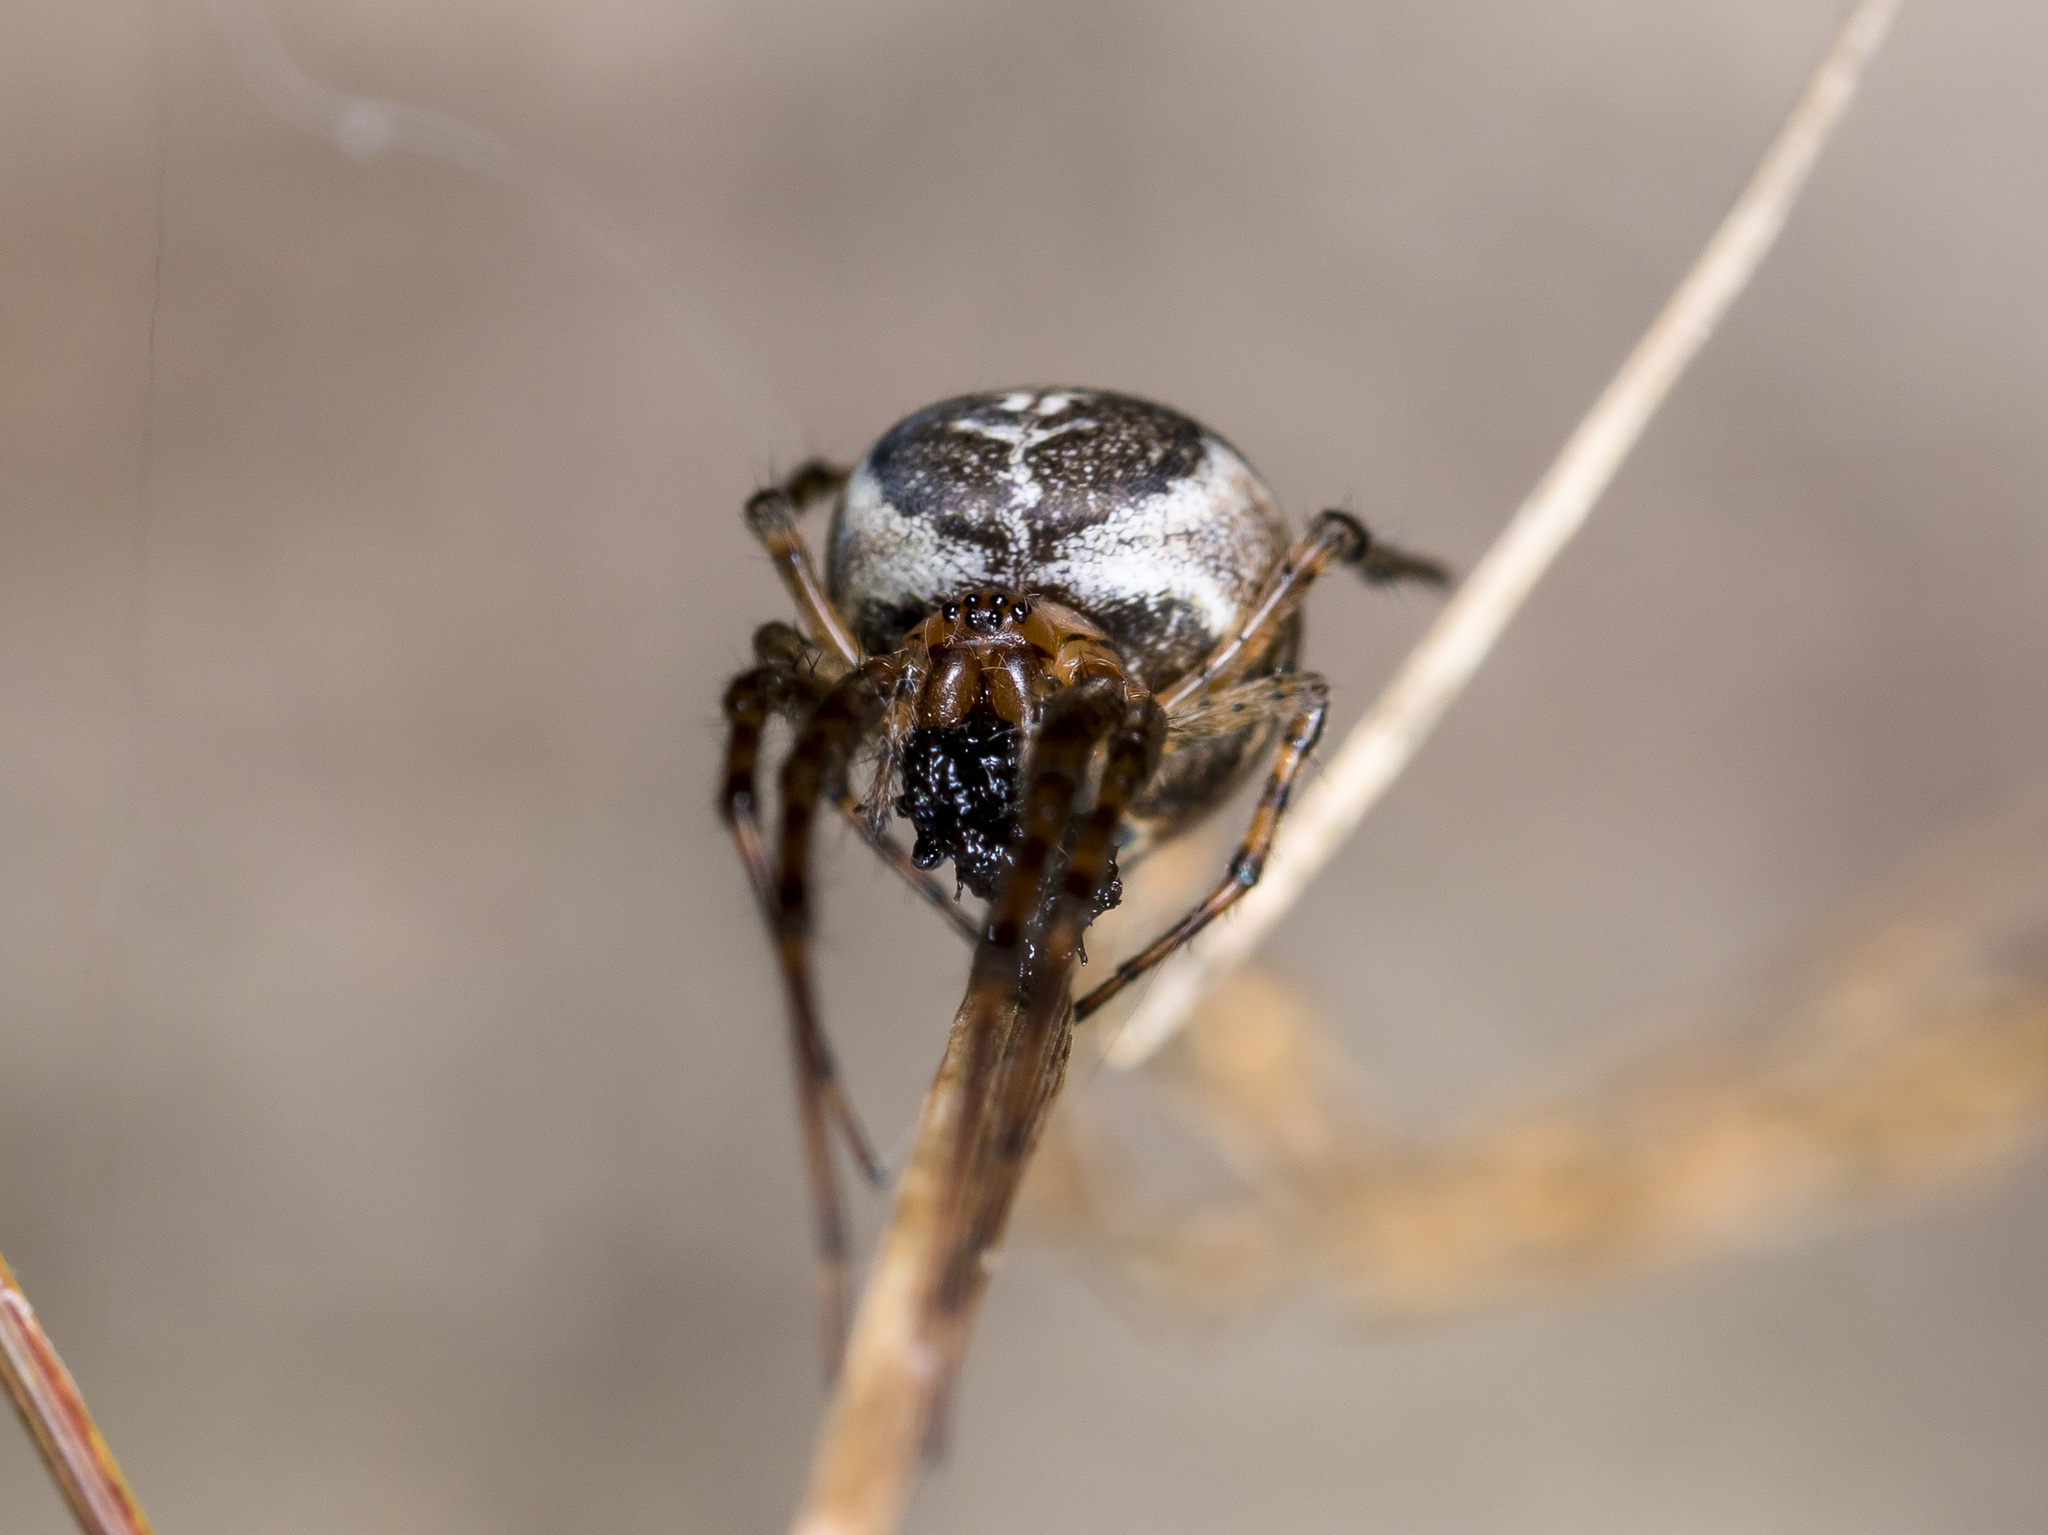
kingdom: Animalia
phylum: Arthropoda
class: Arachnida
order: Araneae
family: Tetragnathidae
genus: Metleucauge
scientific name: Metleucauge dentipalpis
